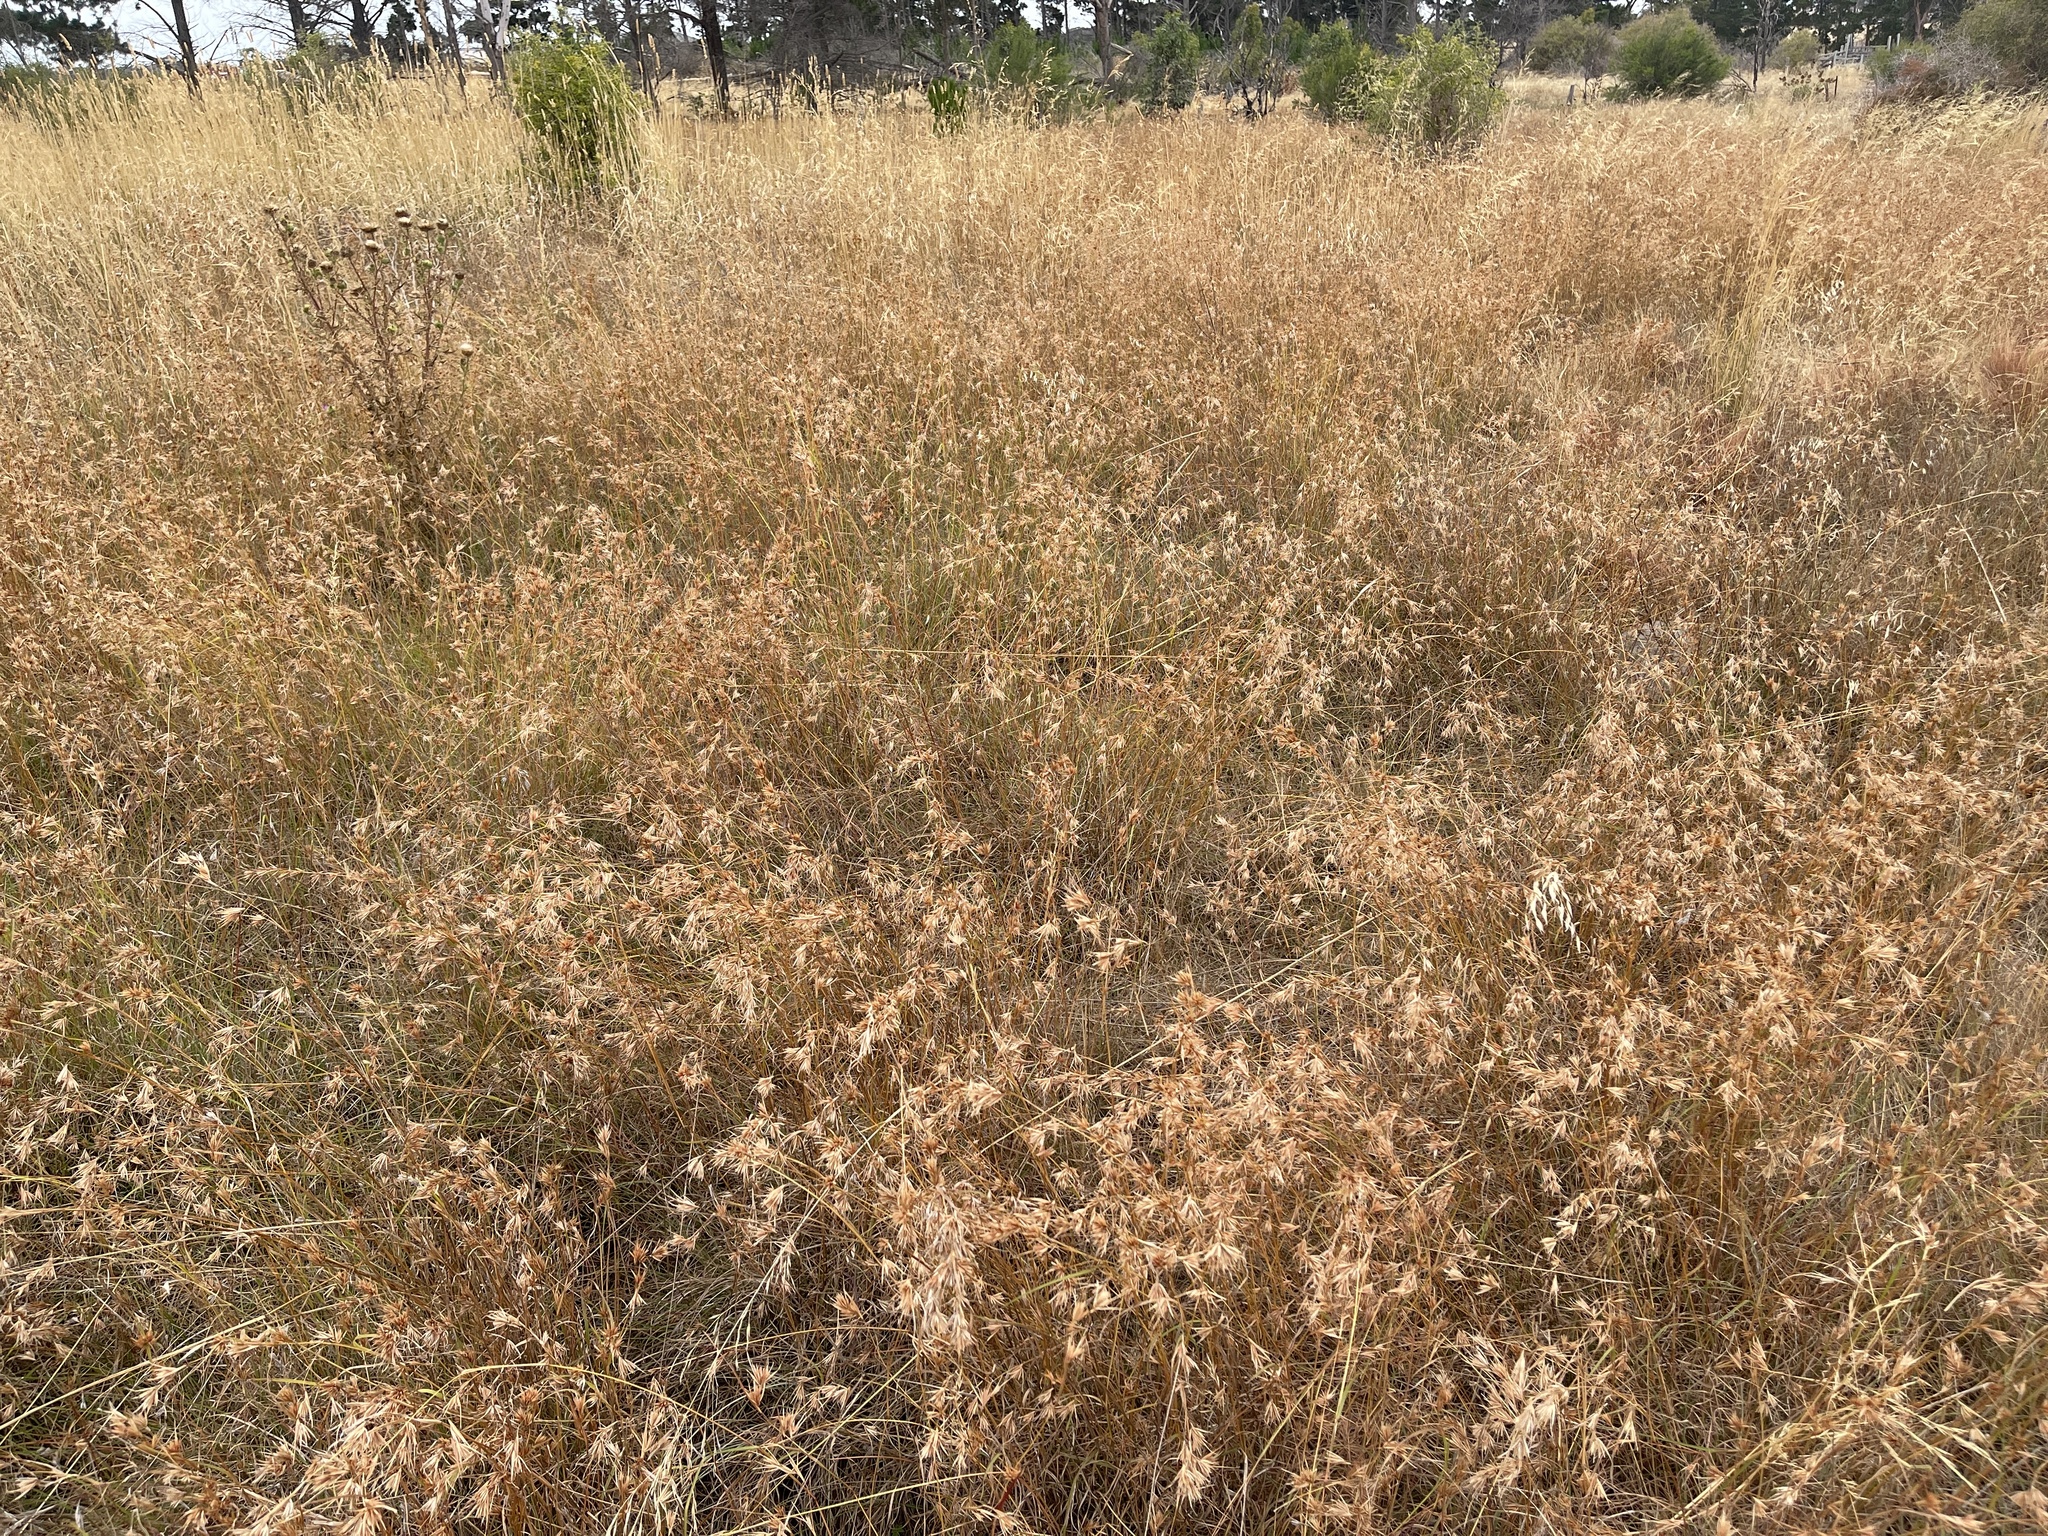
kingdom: Plantae
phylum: Tracheophyta
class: Liliopsida
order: Poales
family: Poaceae
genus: Themeda
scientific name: Themeda triandra
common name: Kangaroo grass
